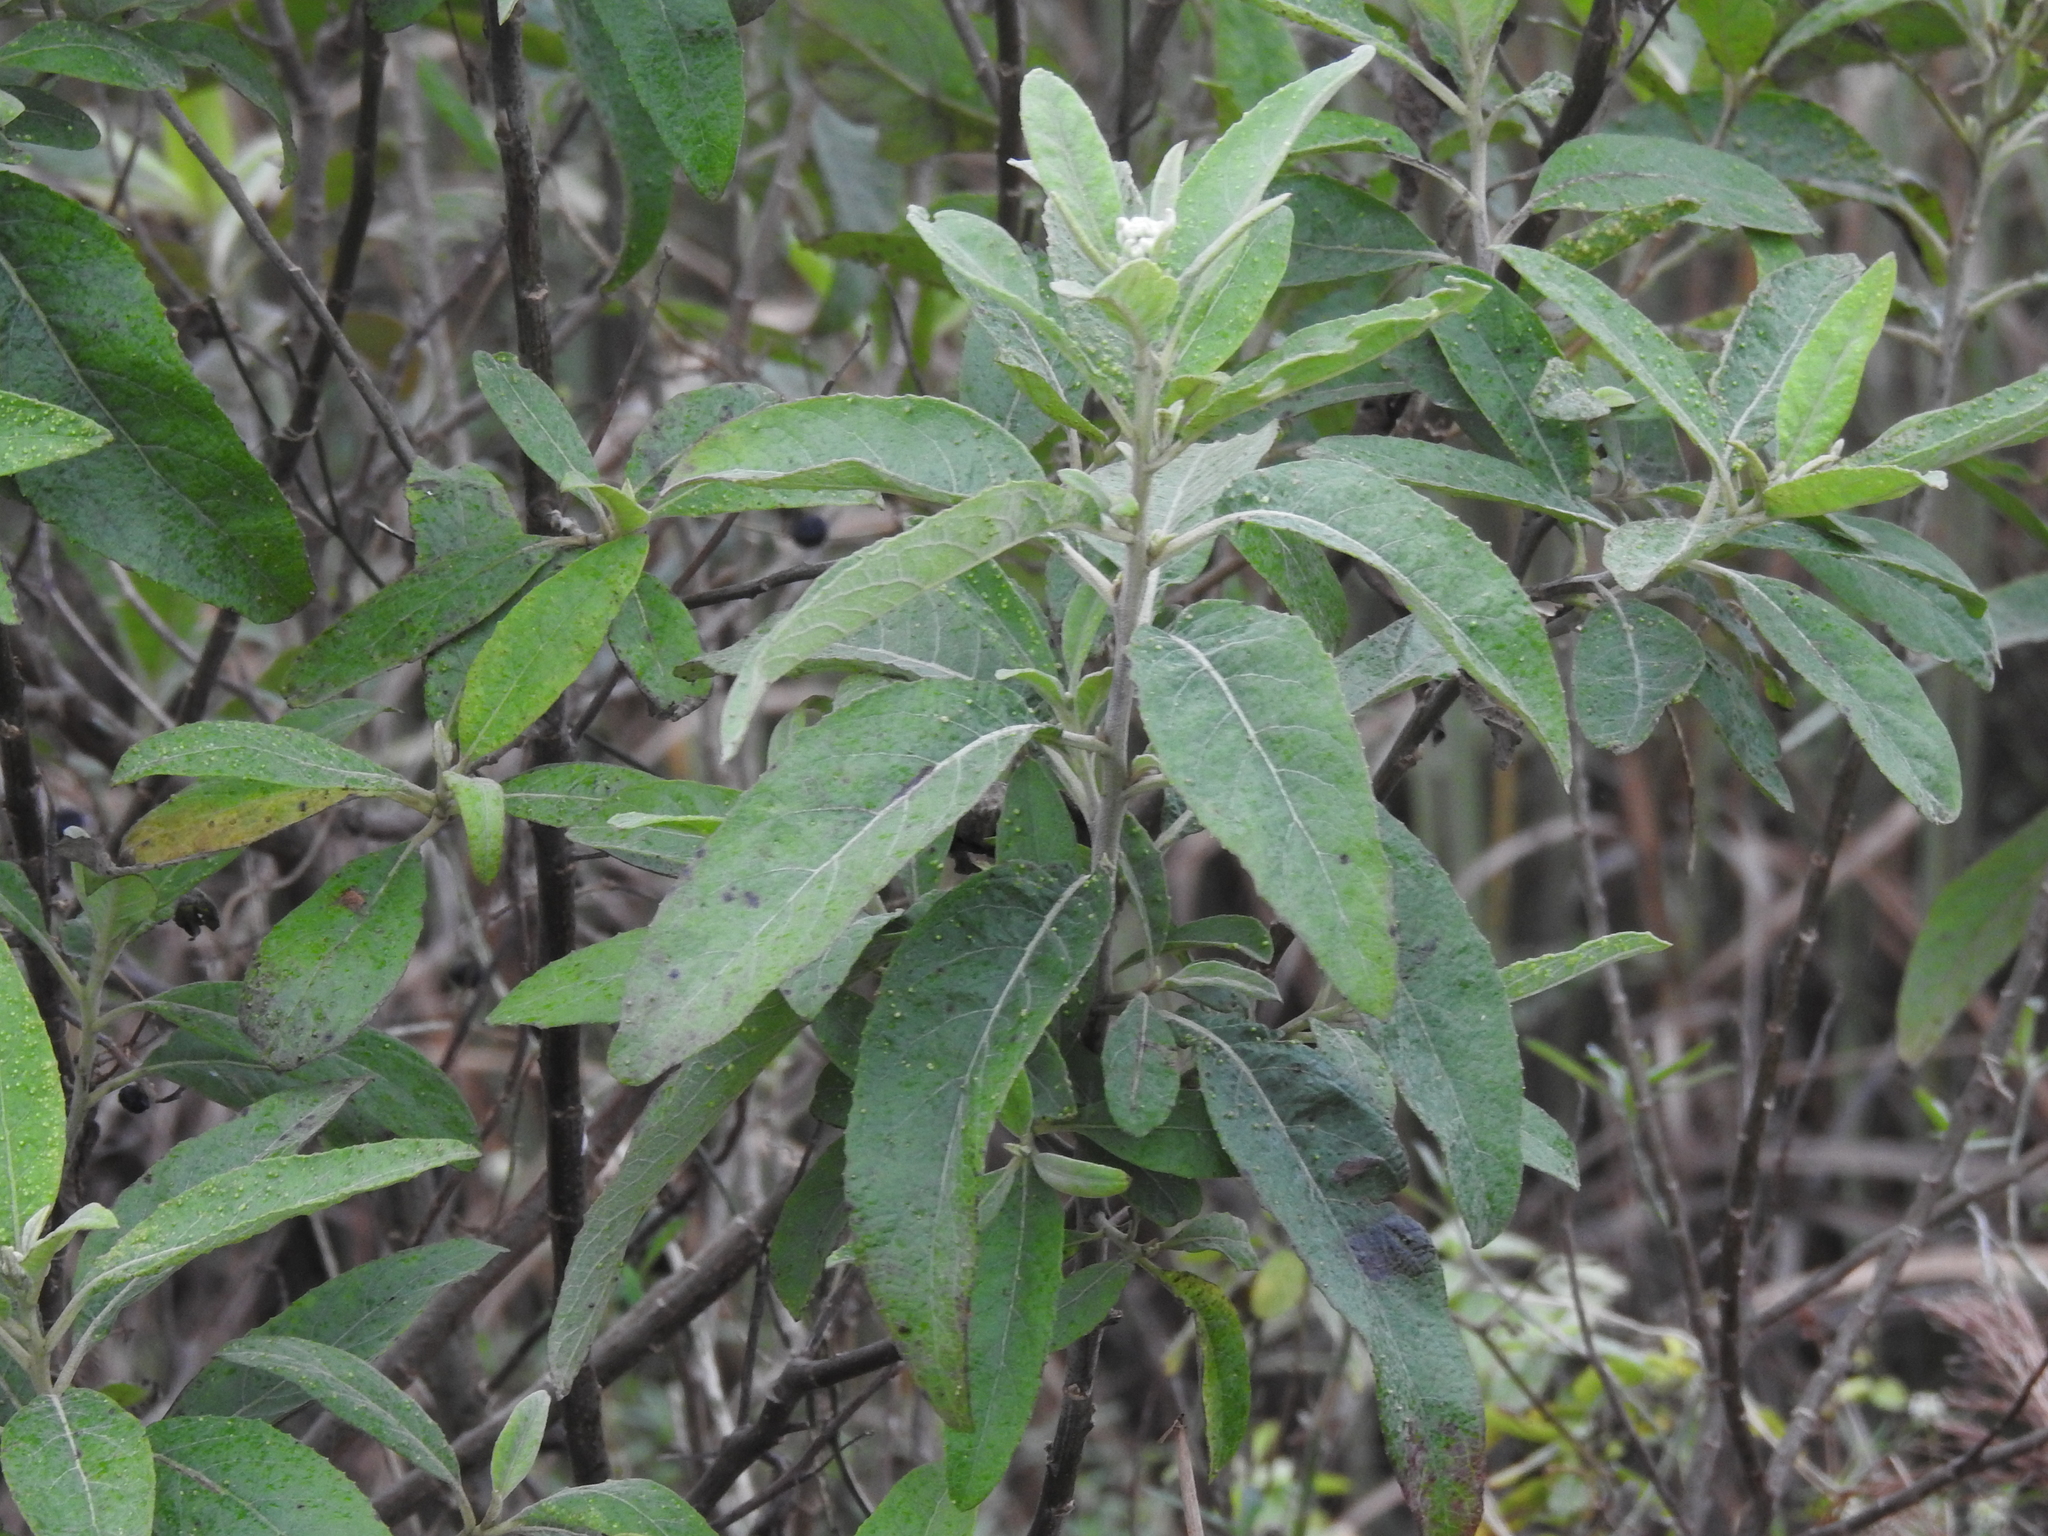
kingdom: Plantae
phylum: Tracheophyta
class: Magnoliopsida
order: Asterales
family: Asteraceae
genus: Pluchea
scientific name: Pluchea carolinensis
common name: Marsh fleabane
